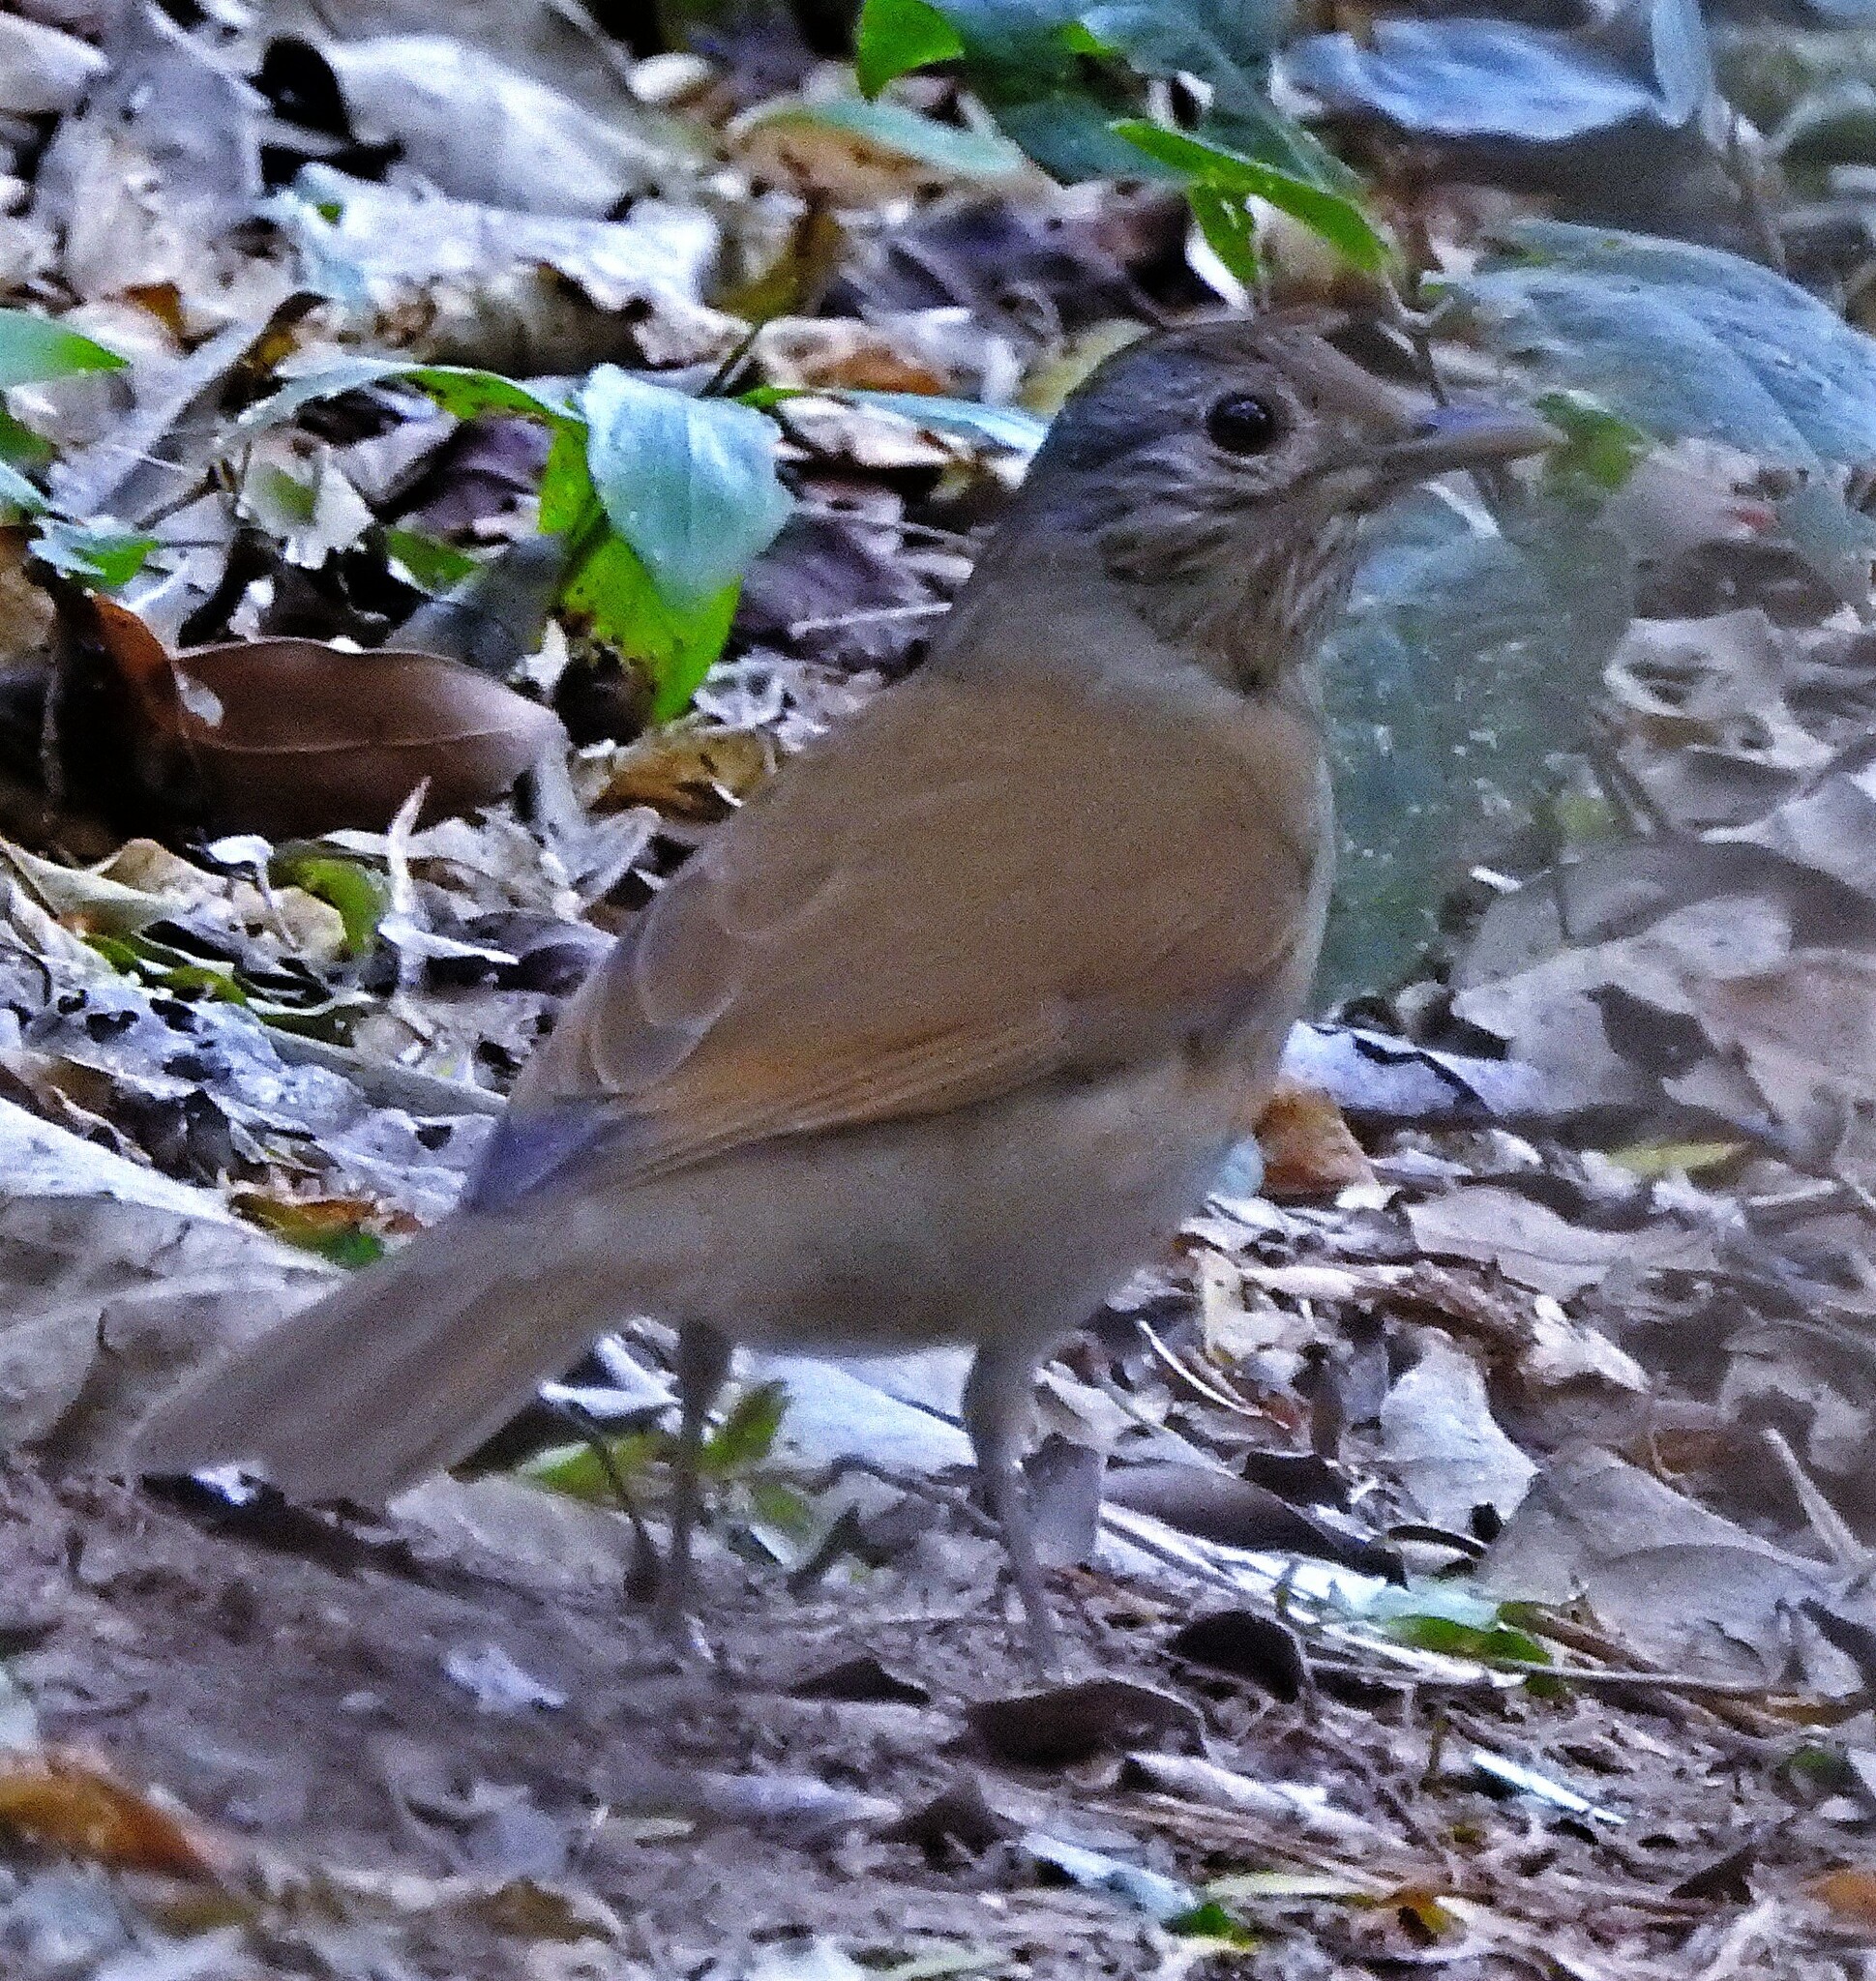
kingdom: Animalia
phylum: Chordata
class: Aves
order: Passeriformes
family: Turdidae
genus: Turdus
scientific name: Turdus leucomelas
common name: Pale-breasted thrush
